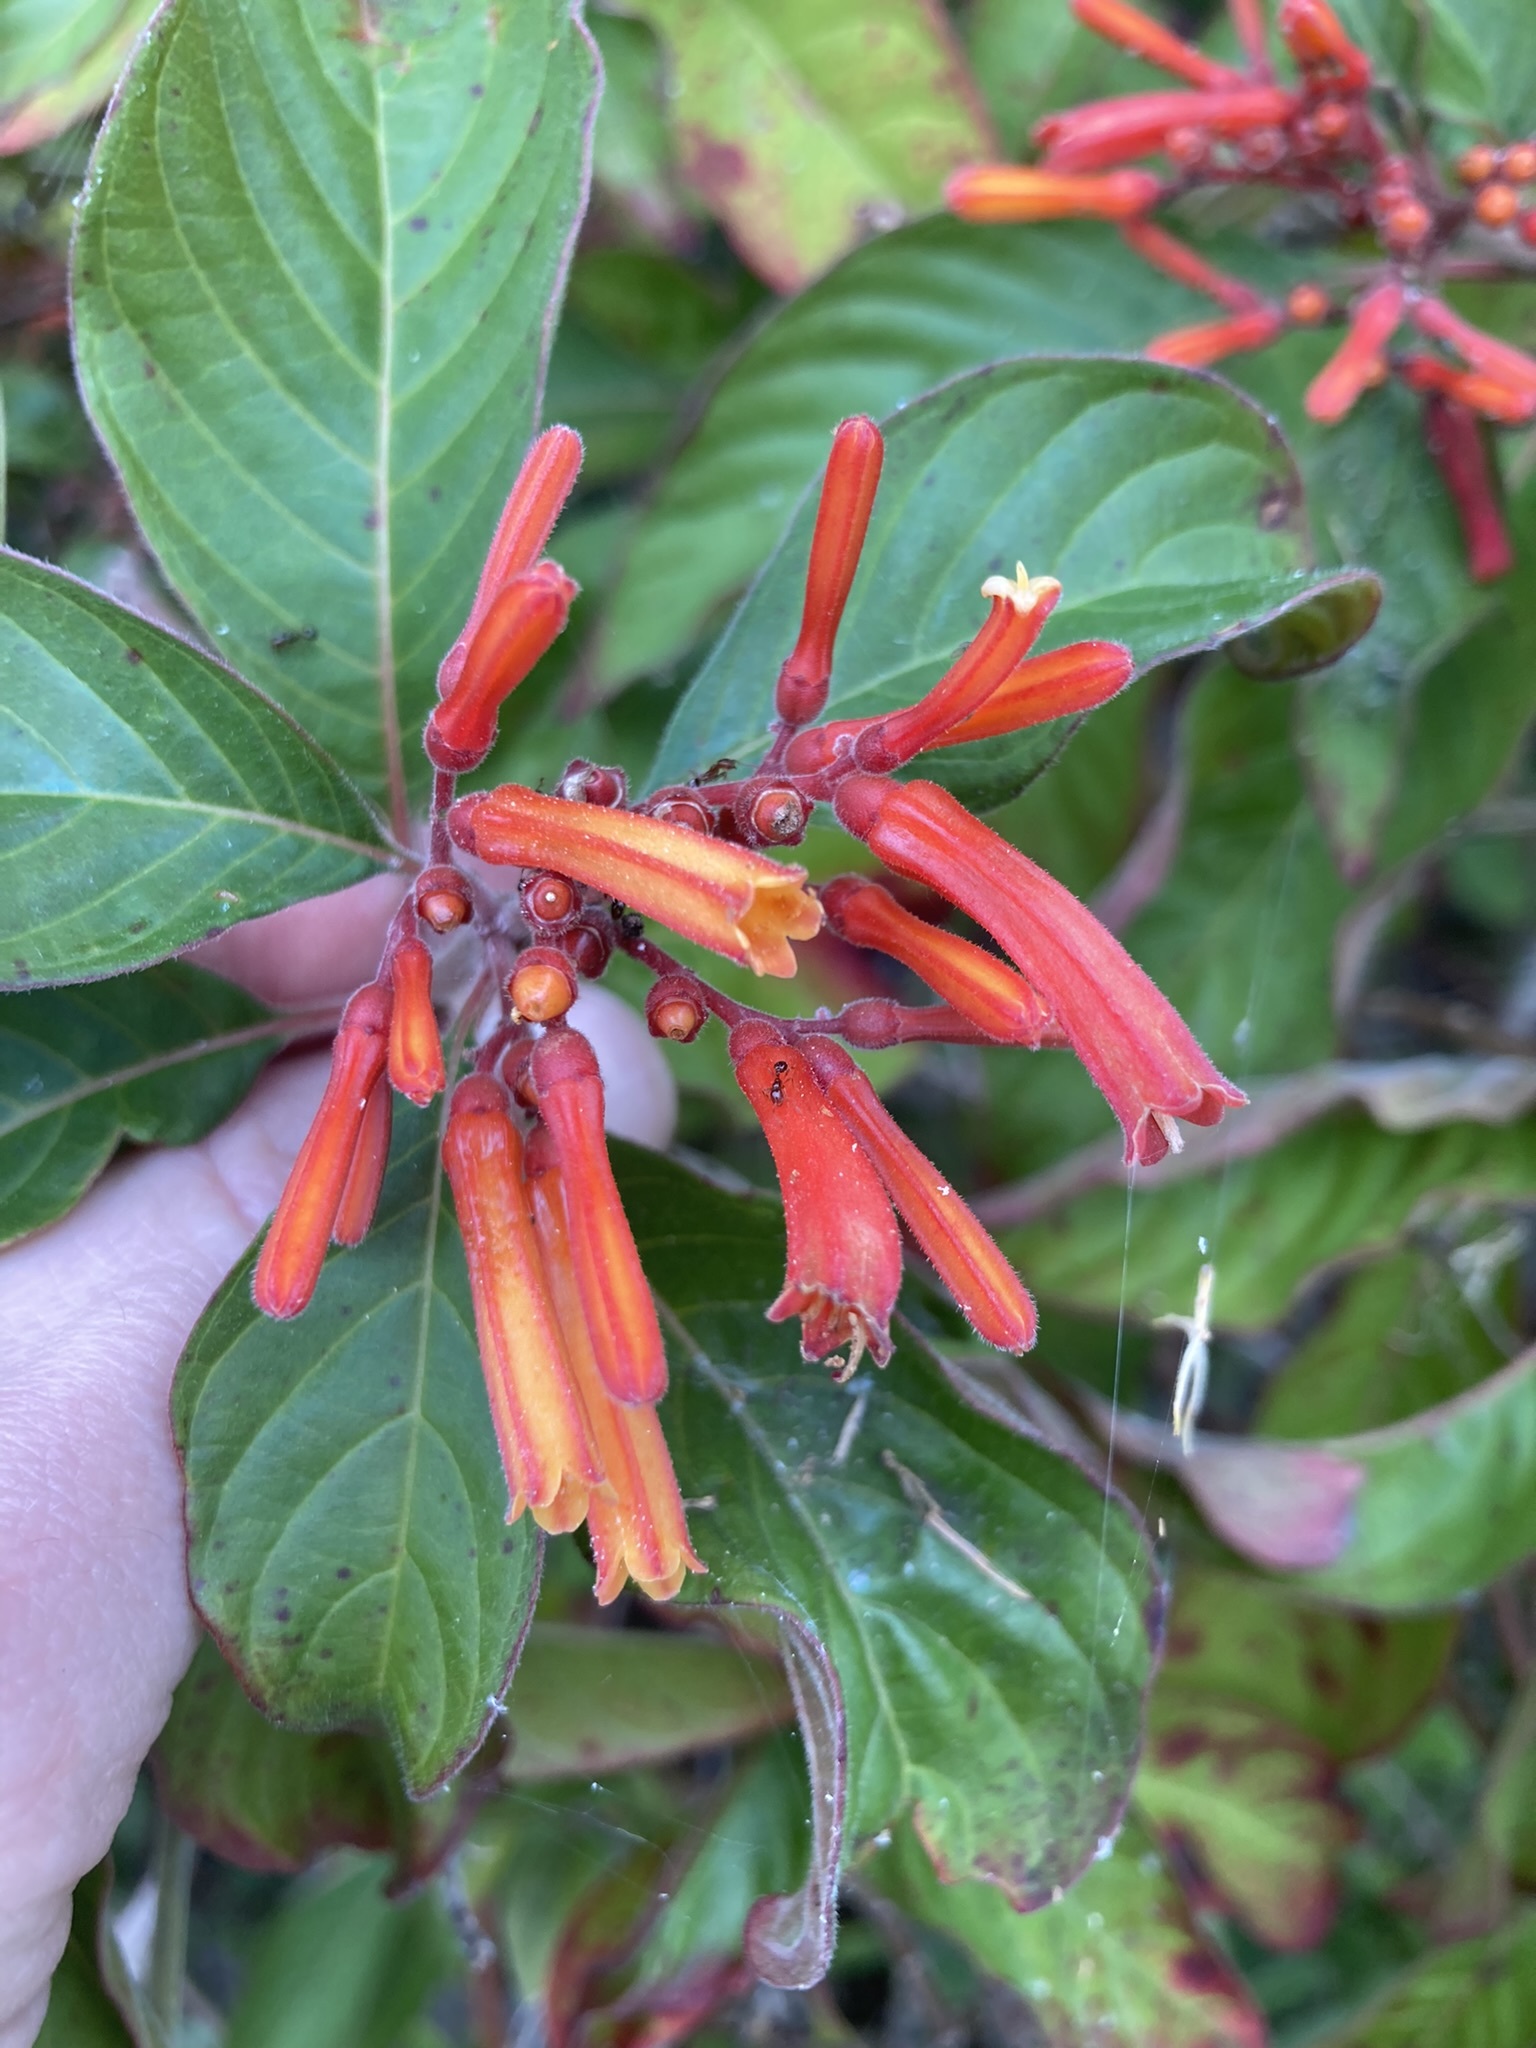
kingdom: Plantae
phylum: Tracheophyta
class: Magnoliopsida
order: Gentianales
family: Rubiaceae
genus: Hamelia
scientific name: Hamelia patens
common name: Redhead
